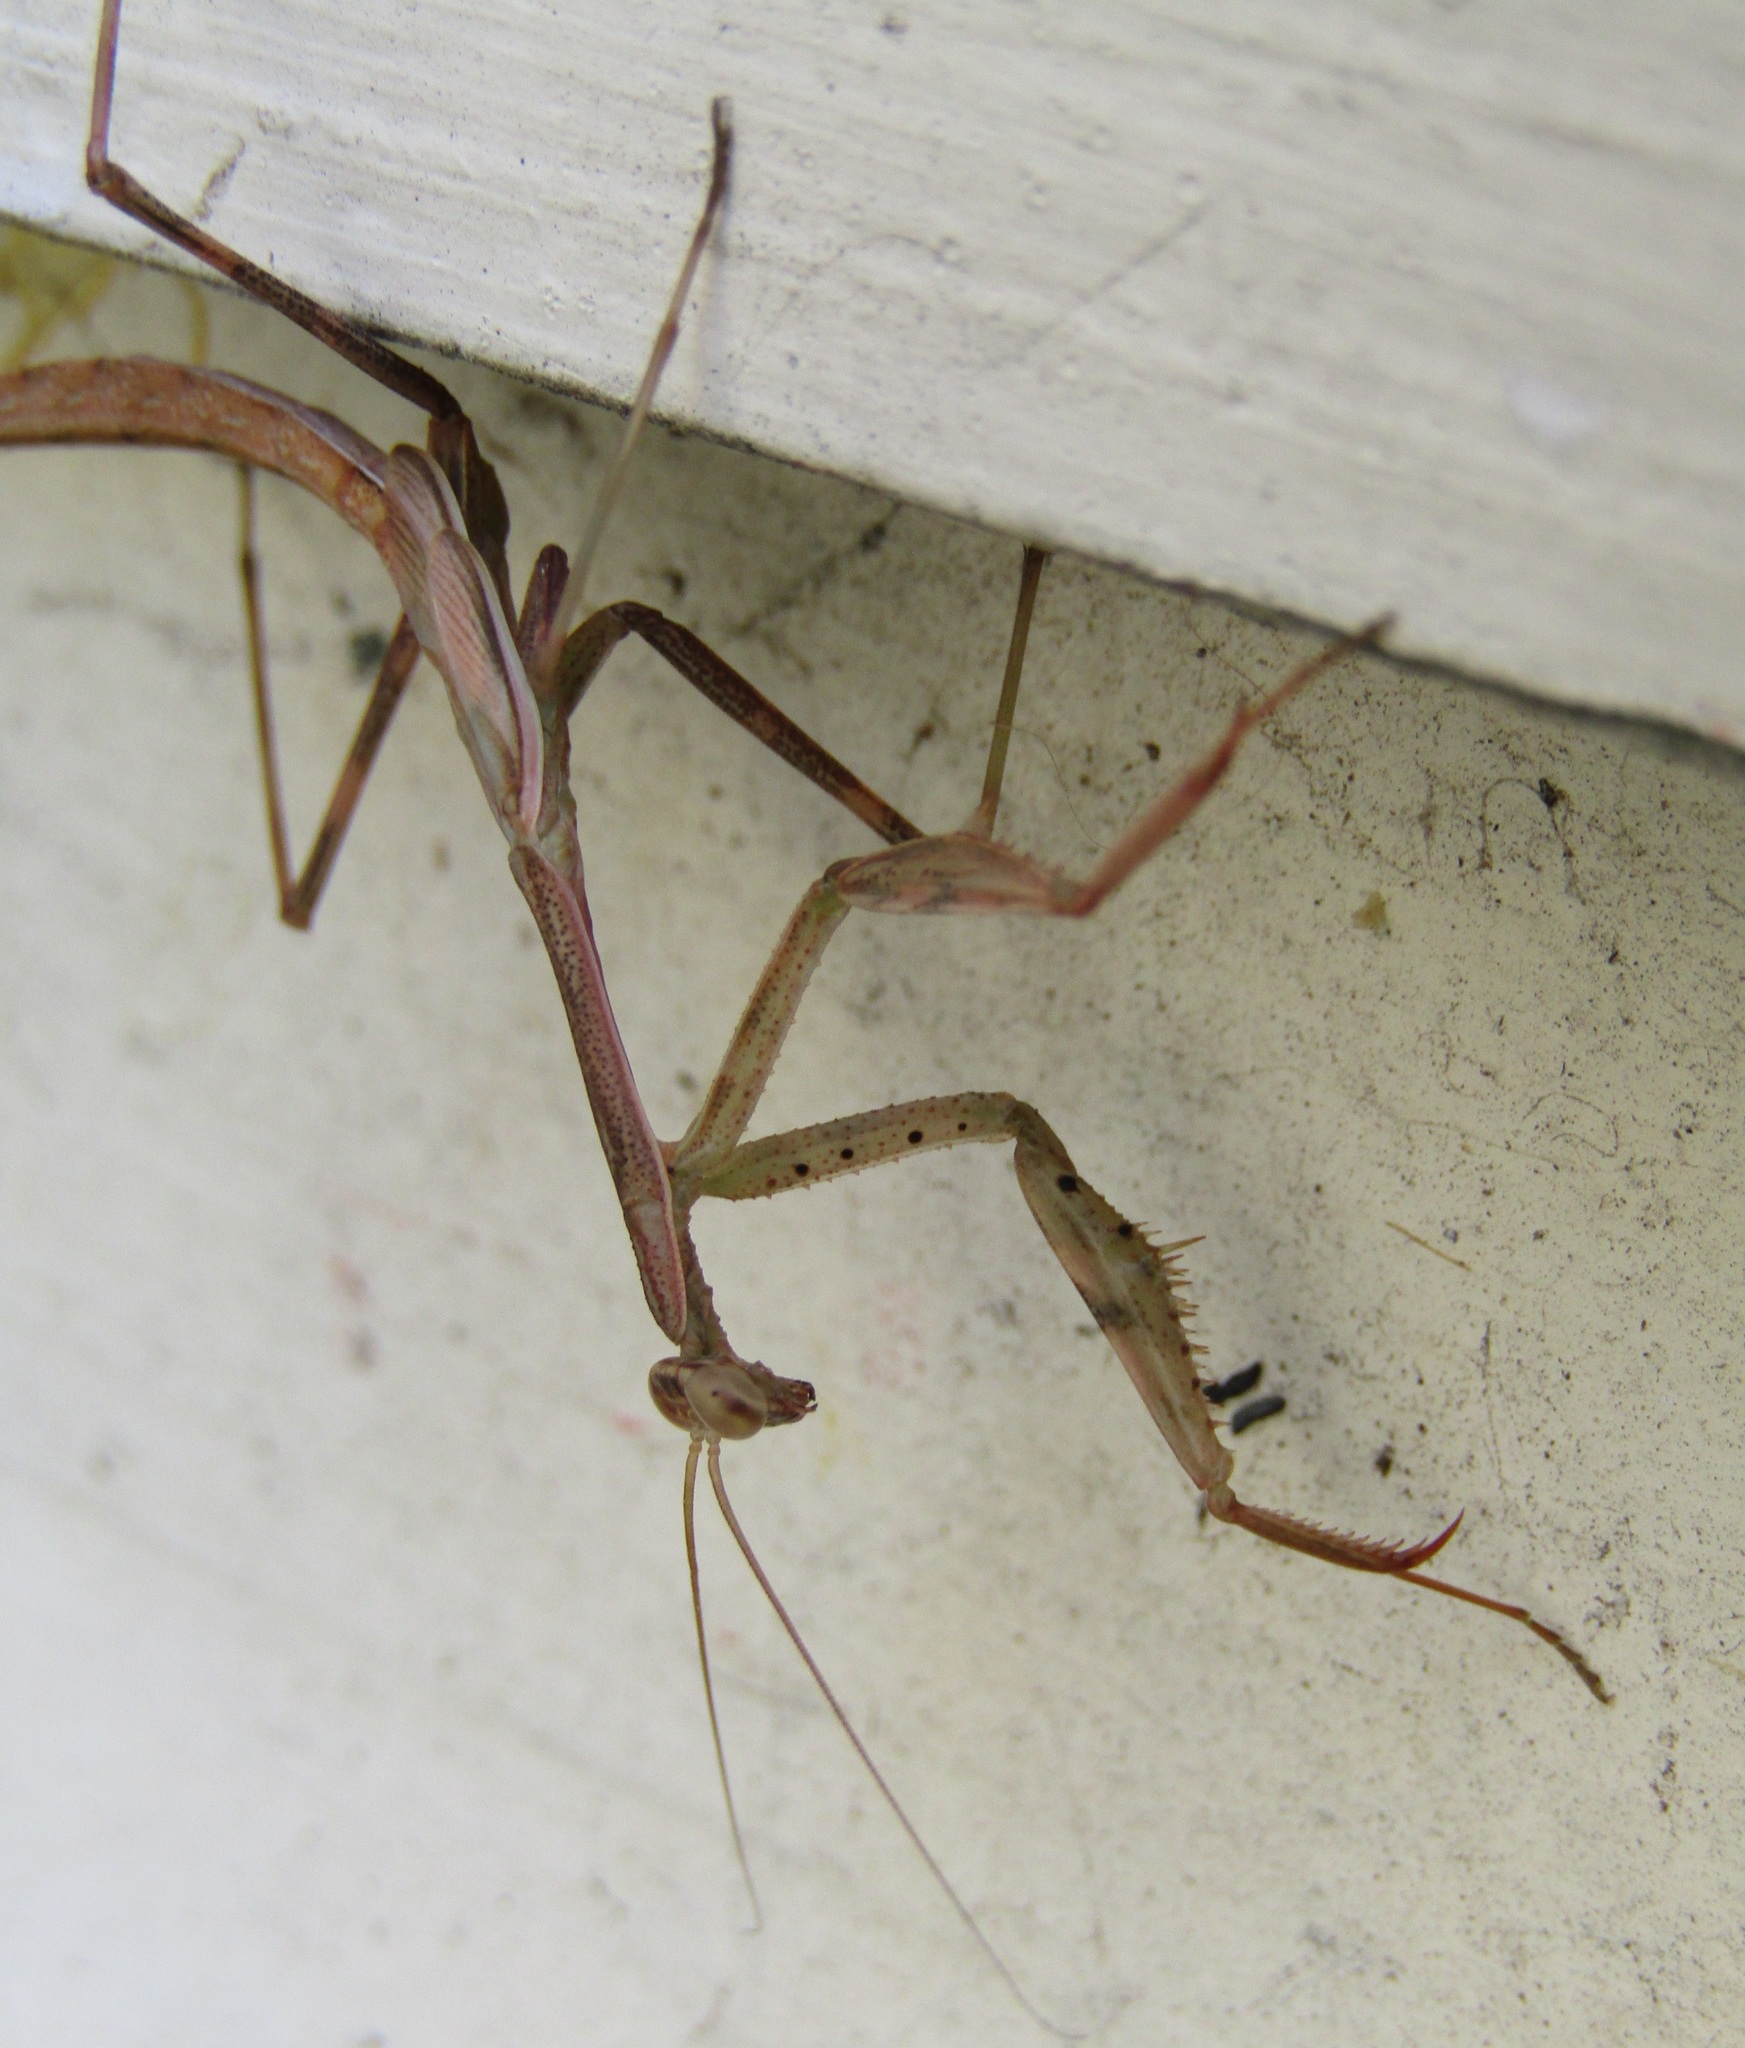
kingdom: Animalia
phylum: Arthropoda
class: Insecta
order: Mantodea
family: Miomantidae
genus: Miomantis
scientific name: Miomantis caffra
